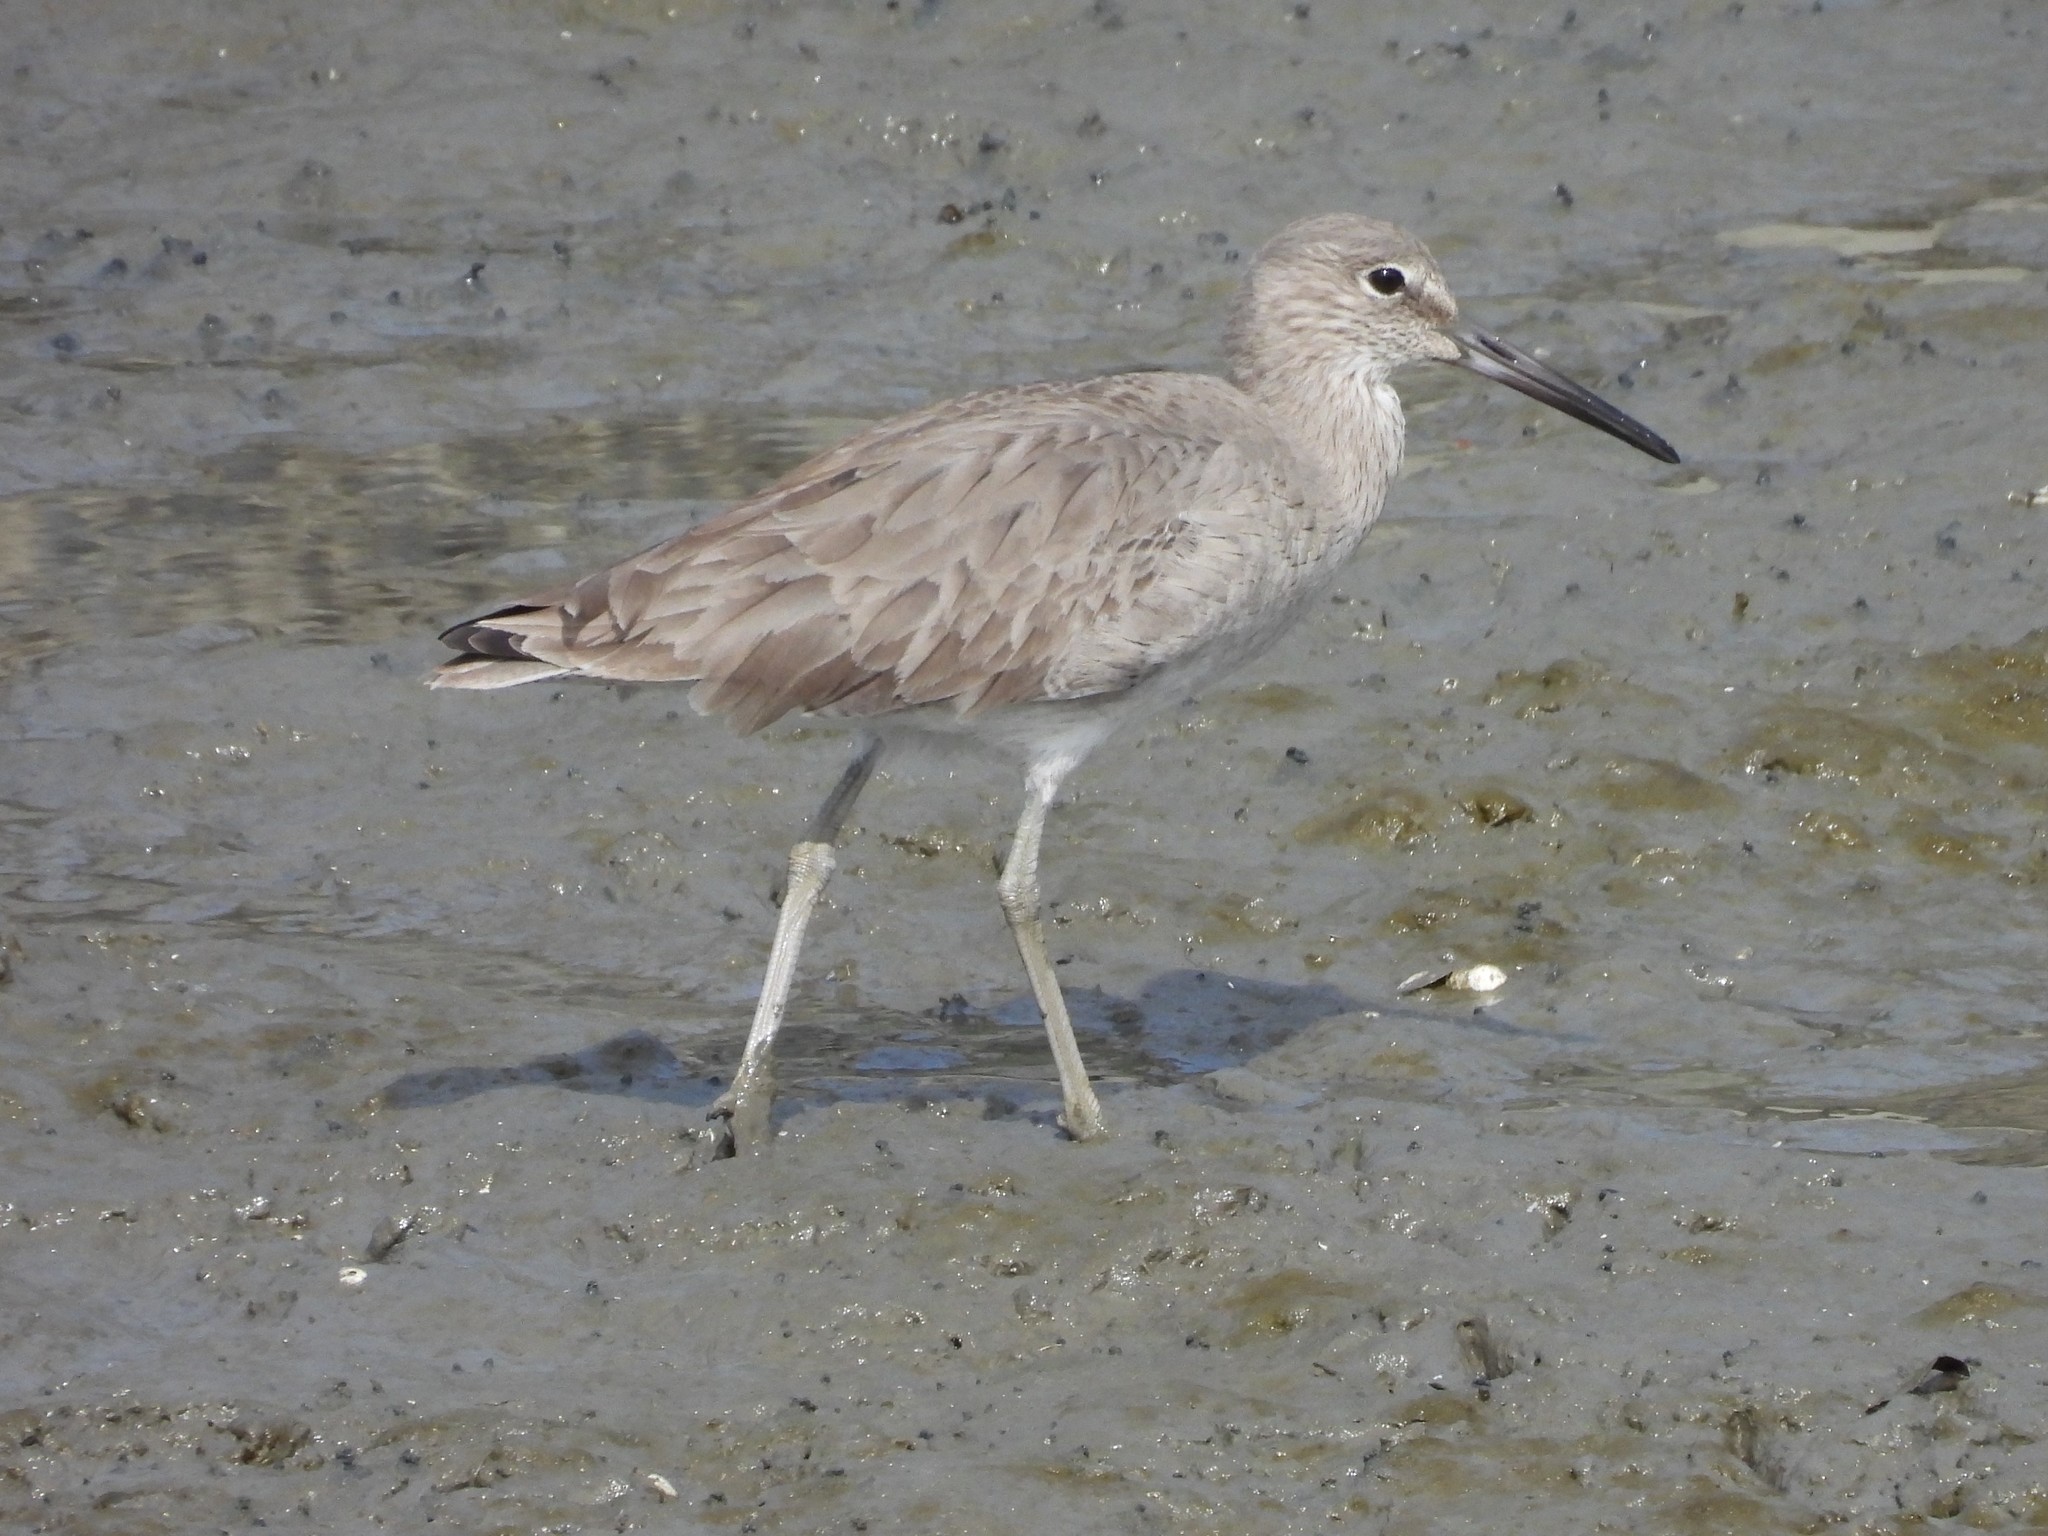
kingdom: Animalia
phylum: Chordata
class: Aves
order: Charadriiformes
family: Scolopacidae
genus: Tringa
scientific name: Tringa semipalmata
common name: Willet
